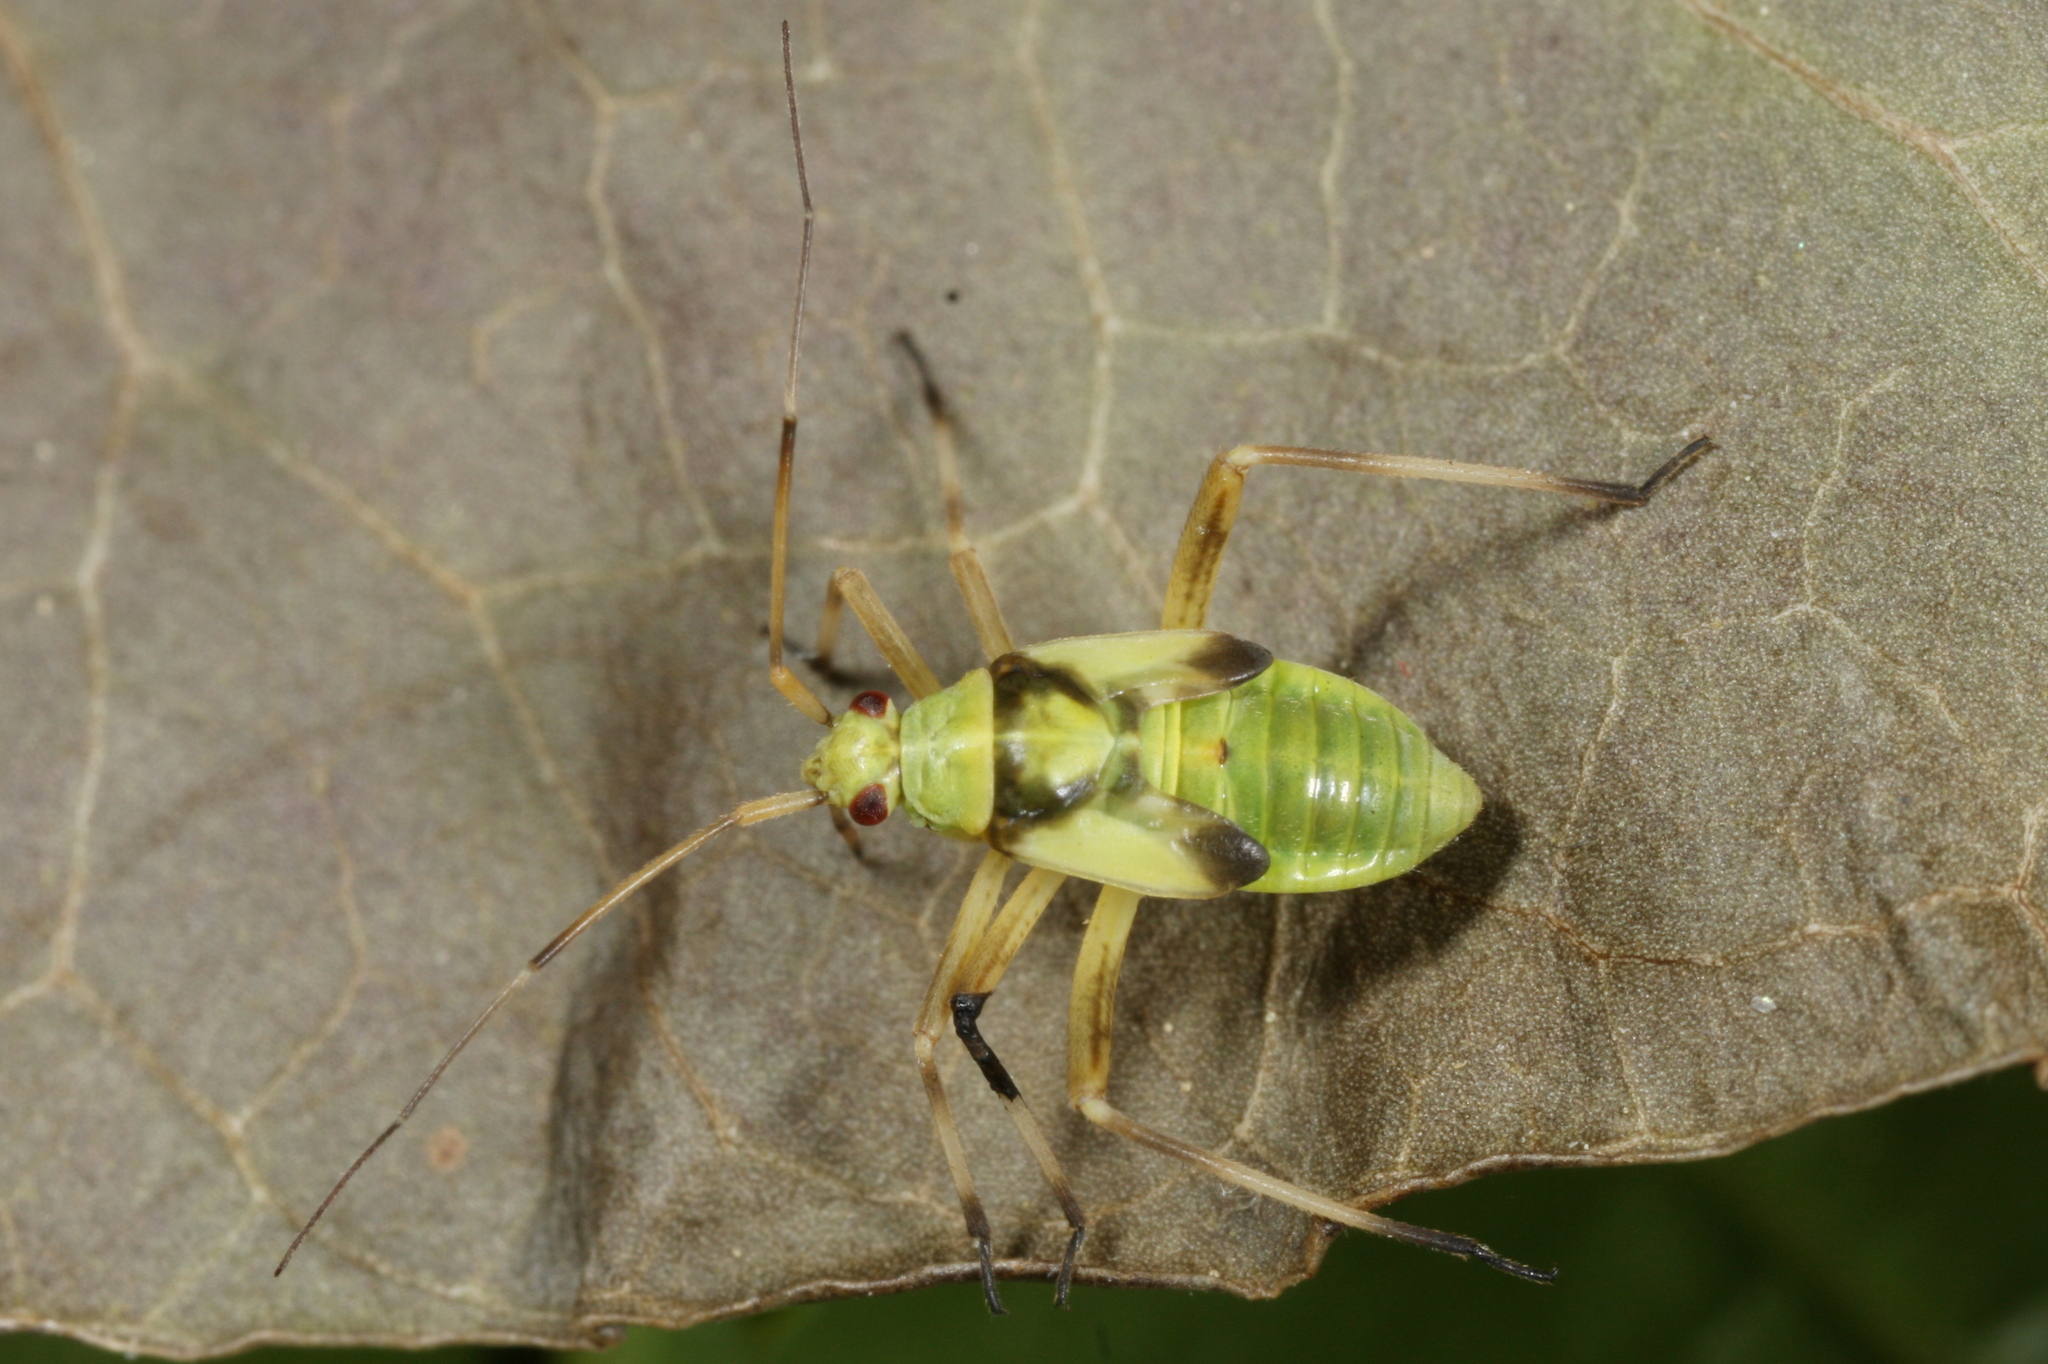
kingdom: Animalia
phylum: Arthropoda
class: Insecta
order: Hemiptera
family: Miridae
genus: Calocoris
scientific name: Calocoris alpestris
